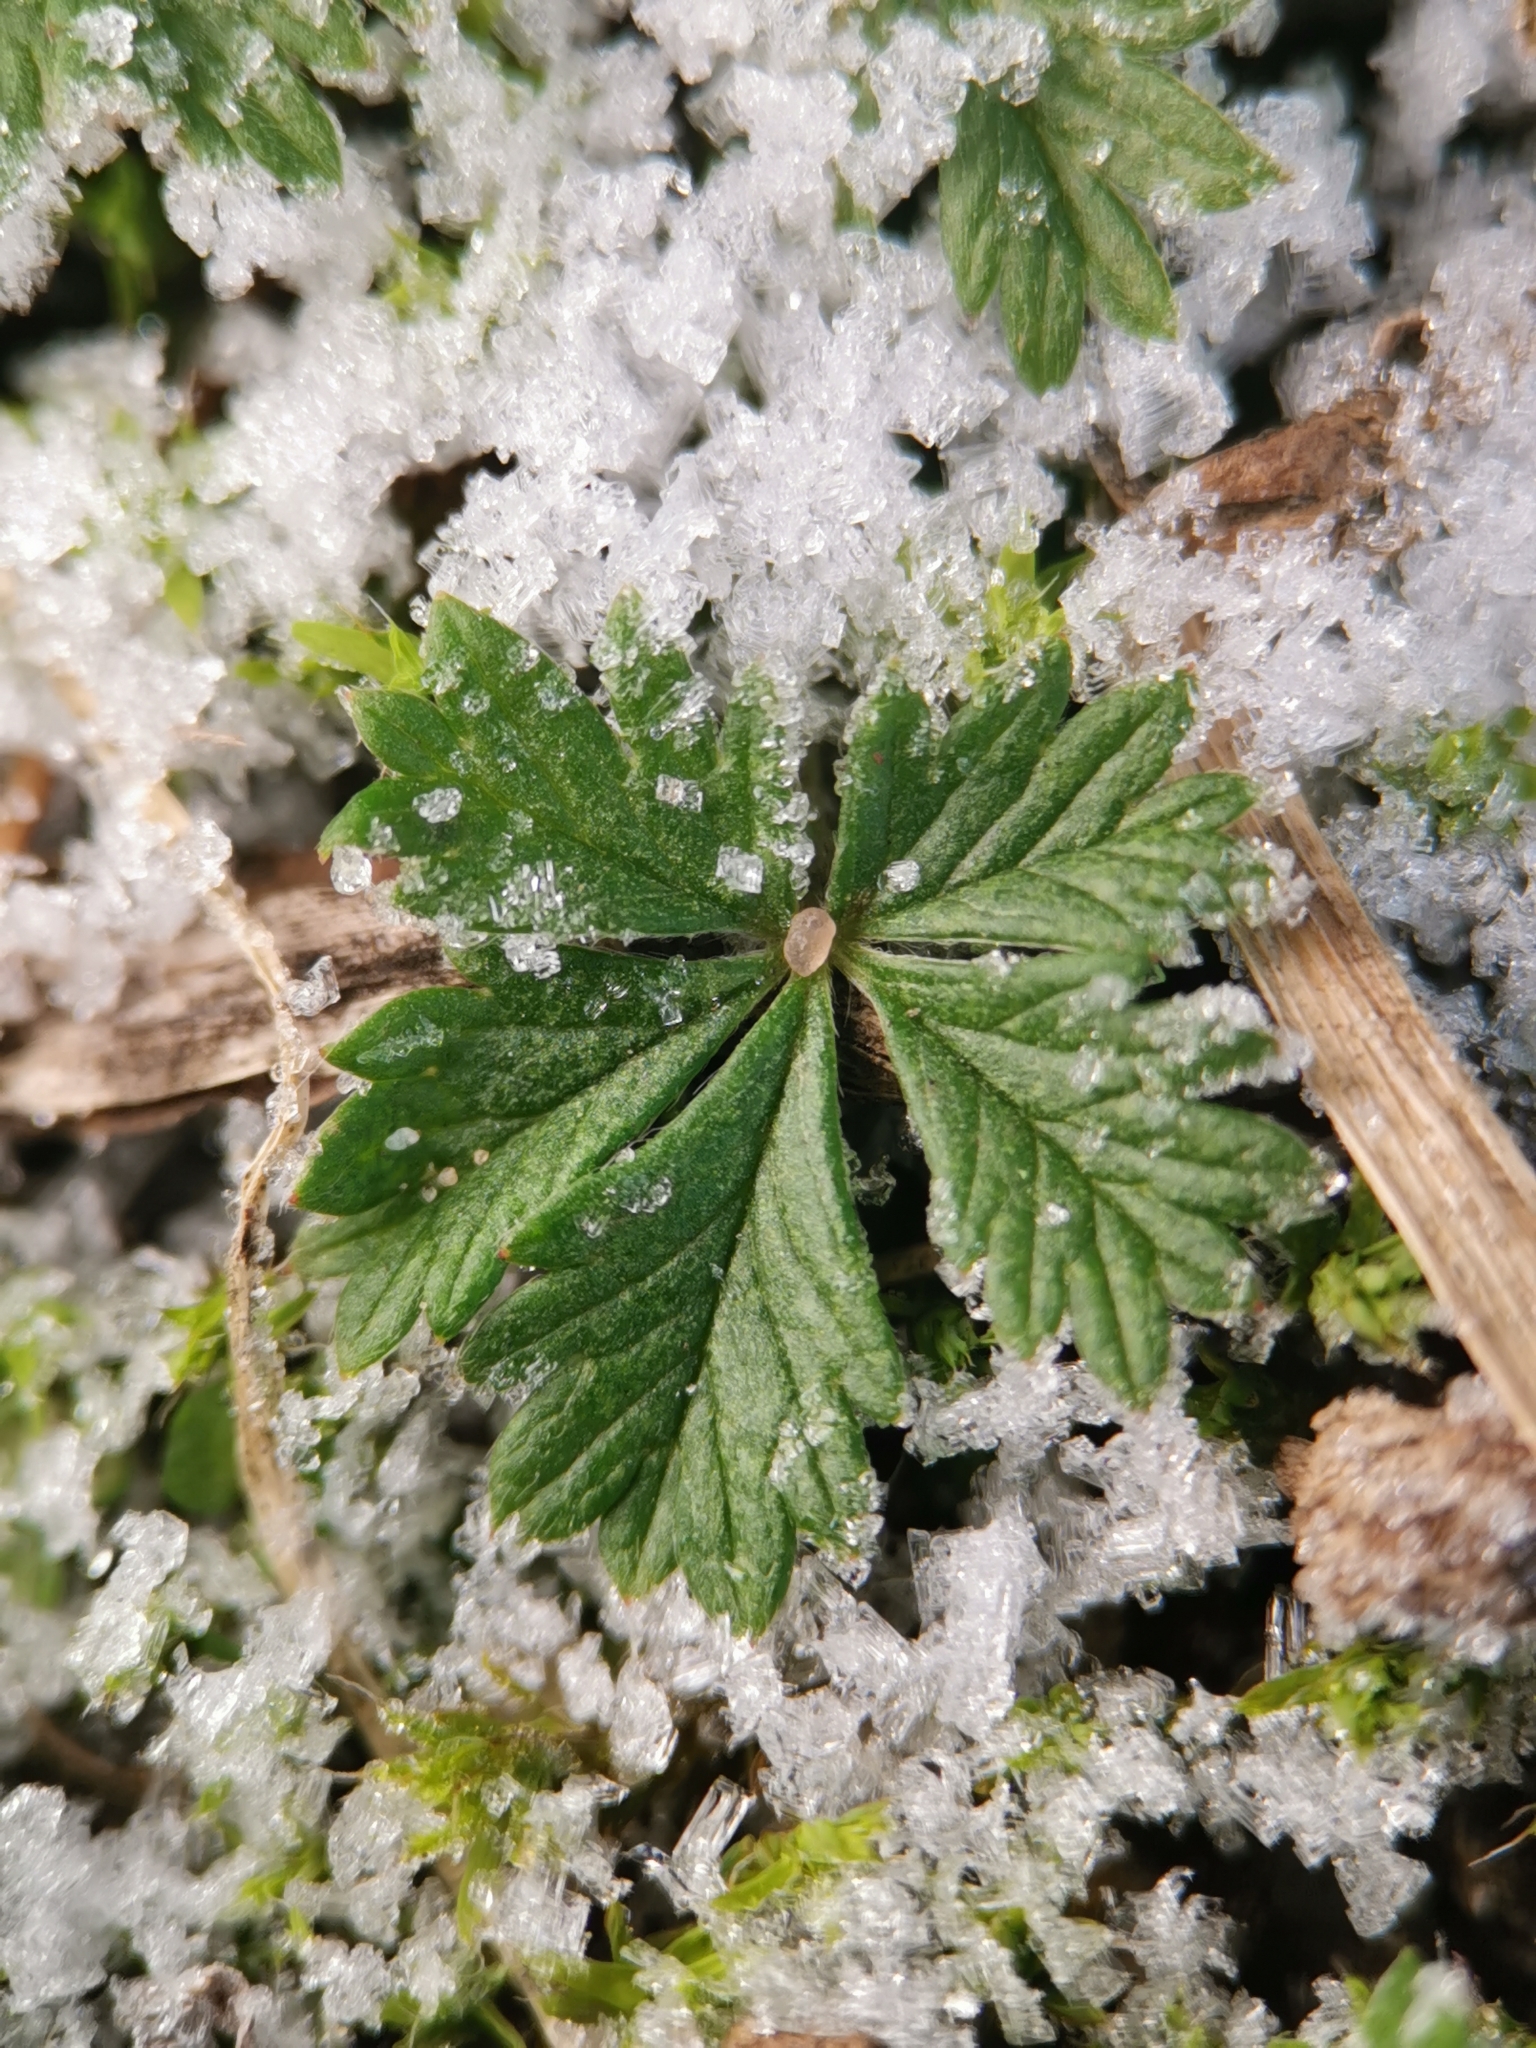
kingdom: Plantae
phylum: Tracheophyta
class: Magnoliopsida
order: Rosales
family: Rosaceae
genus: Potentilla
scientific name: Potentilla argentea
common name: Hoary cinquefoil
